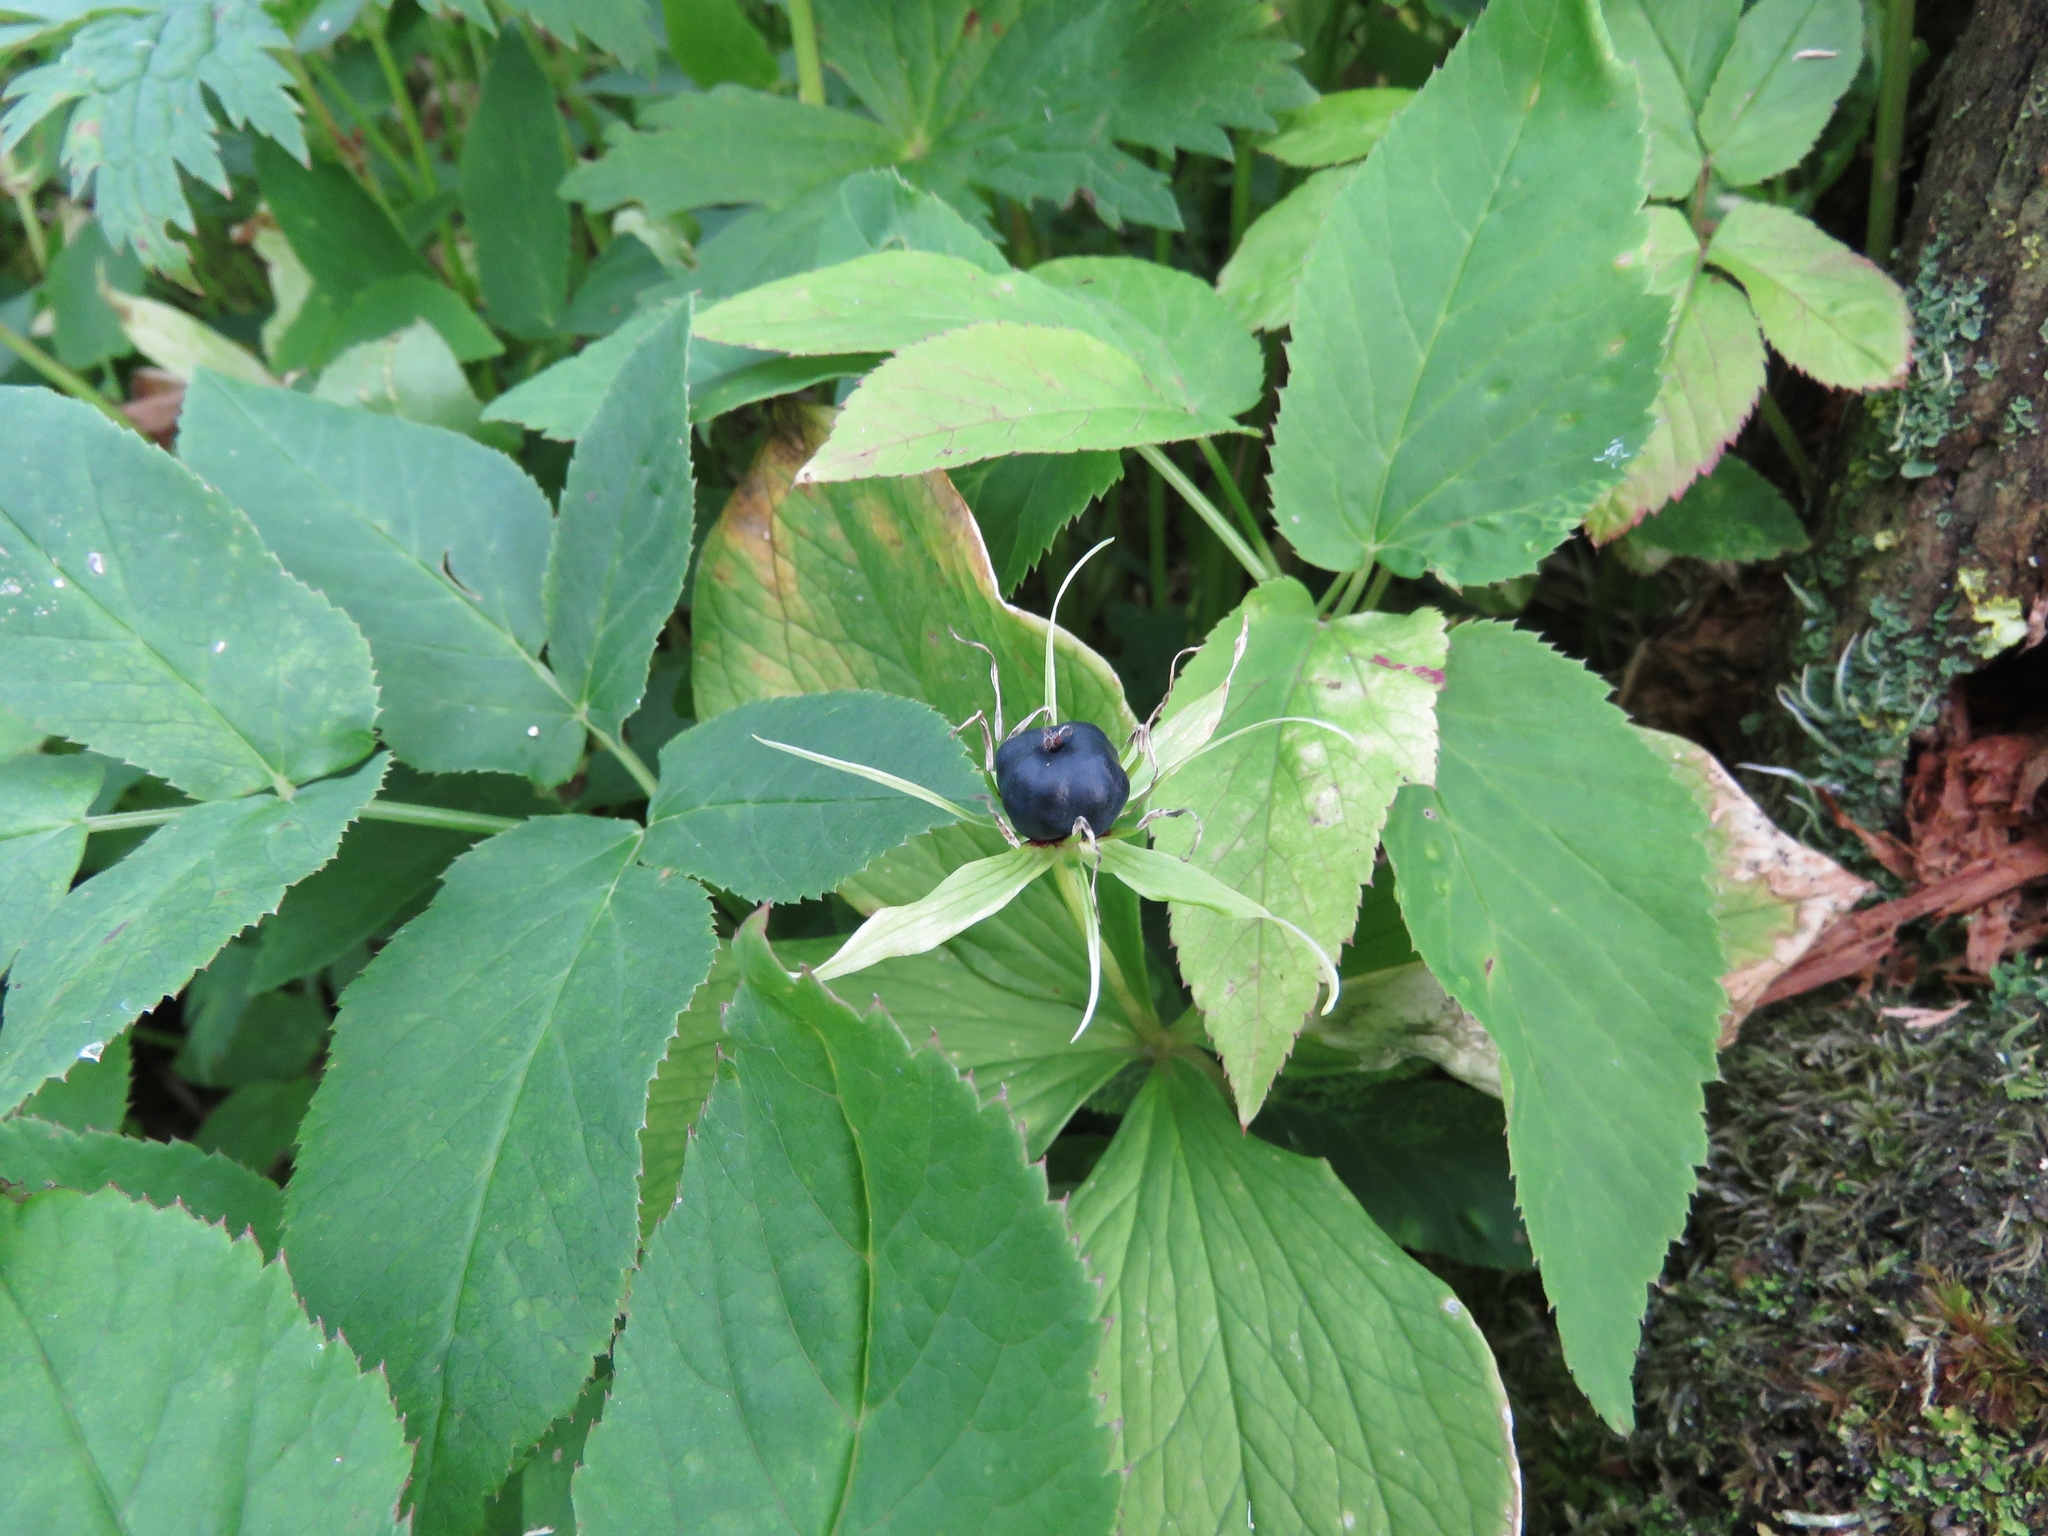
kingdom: Plantae
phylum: Tracheophyta
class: Liliopsida
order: Liliales
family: Melanthiaceae
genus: Paris
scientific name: Paris quadrifolia
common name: Herb-paris
